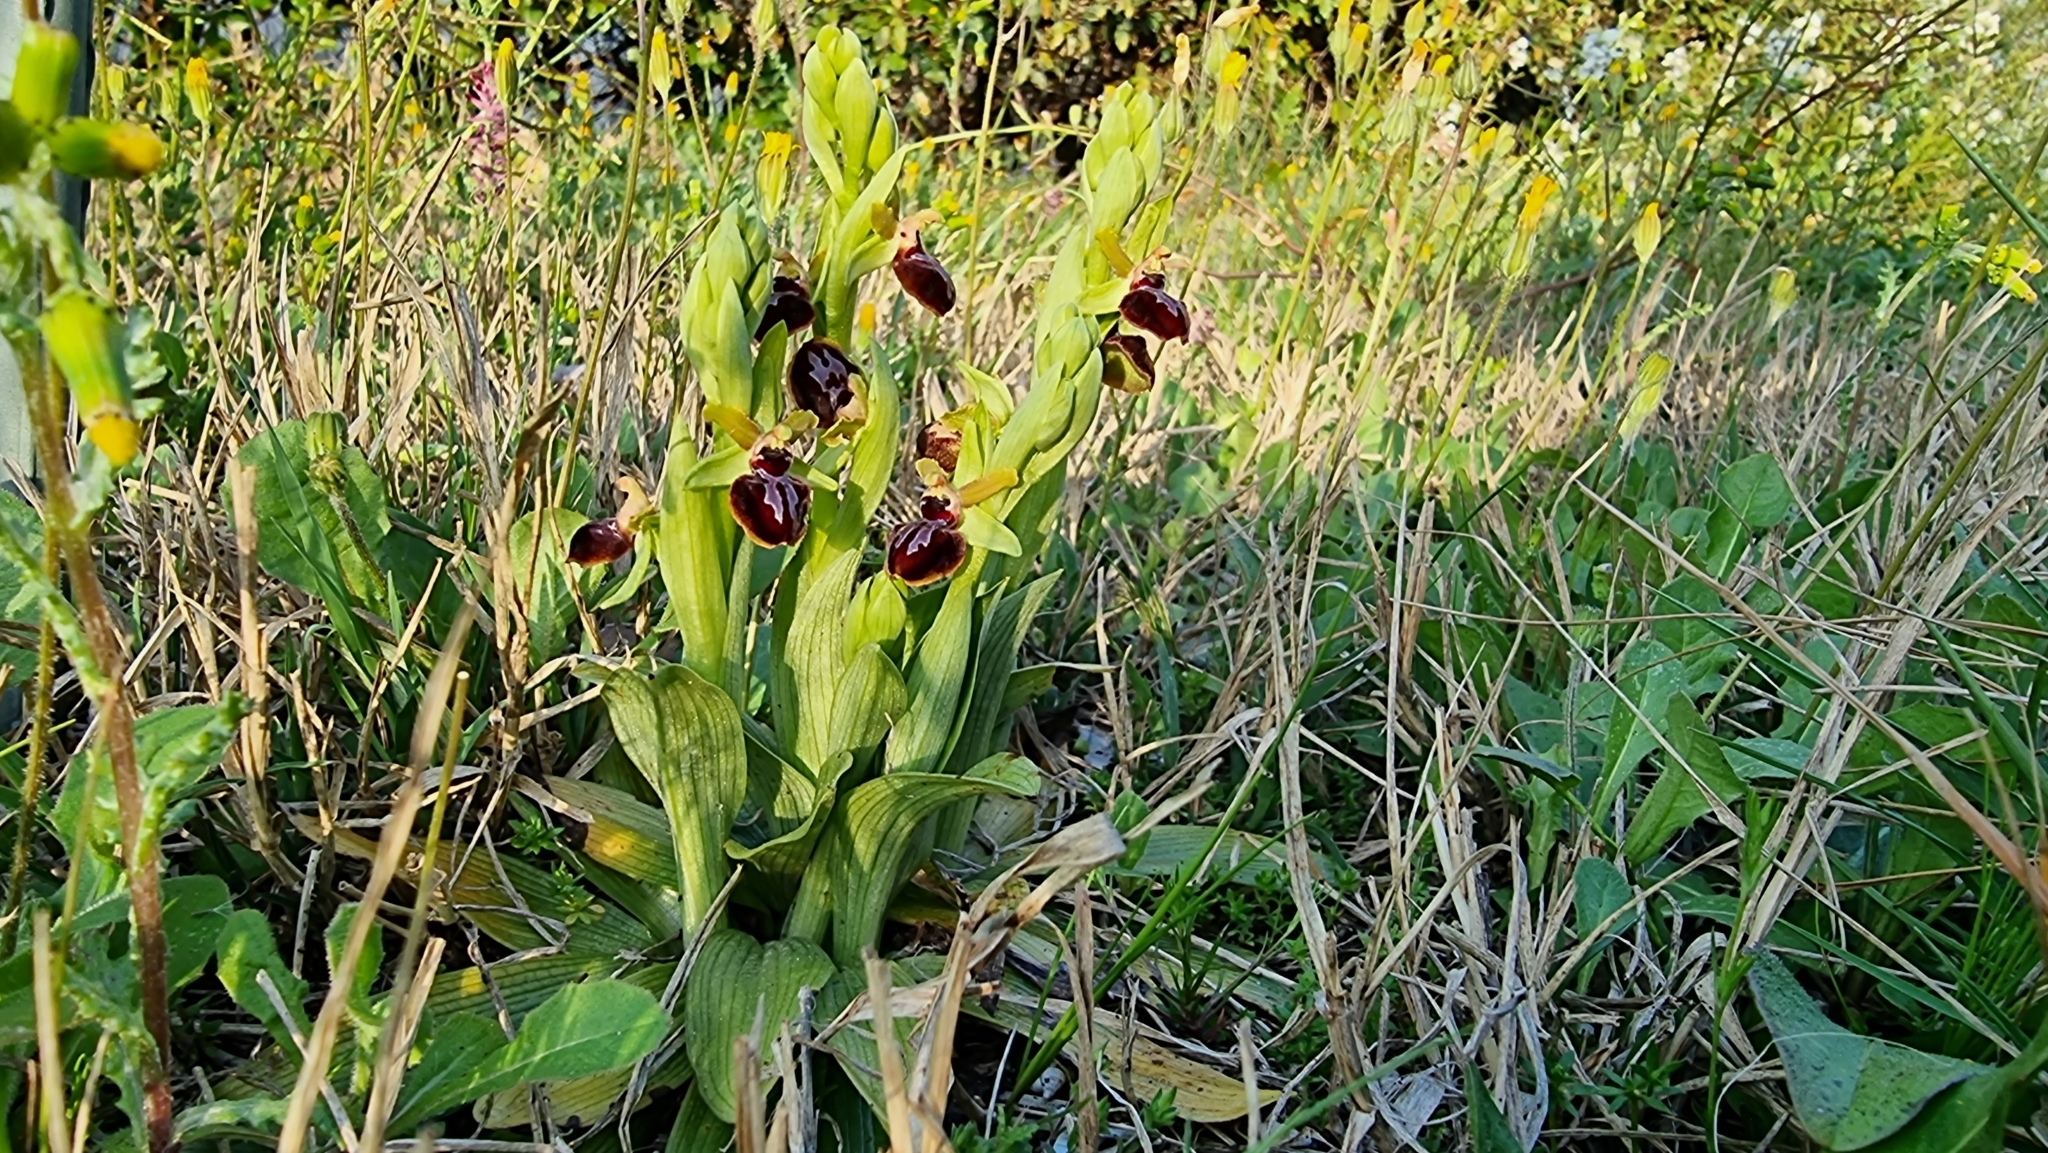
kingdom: Plantae
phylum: Tracheophyta
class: Liliopsida
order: Asparagales
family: Orchidaceae
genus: Ophrys
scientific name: Ophrys sphegodes
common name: Early spider-orchid
